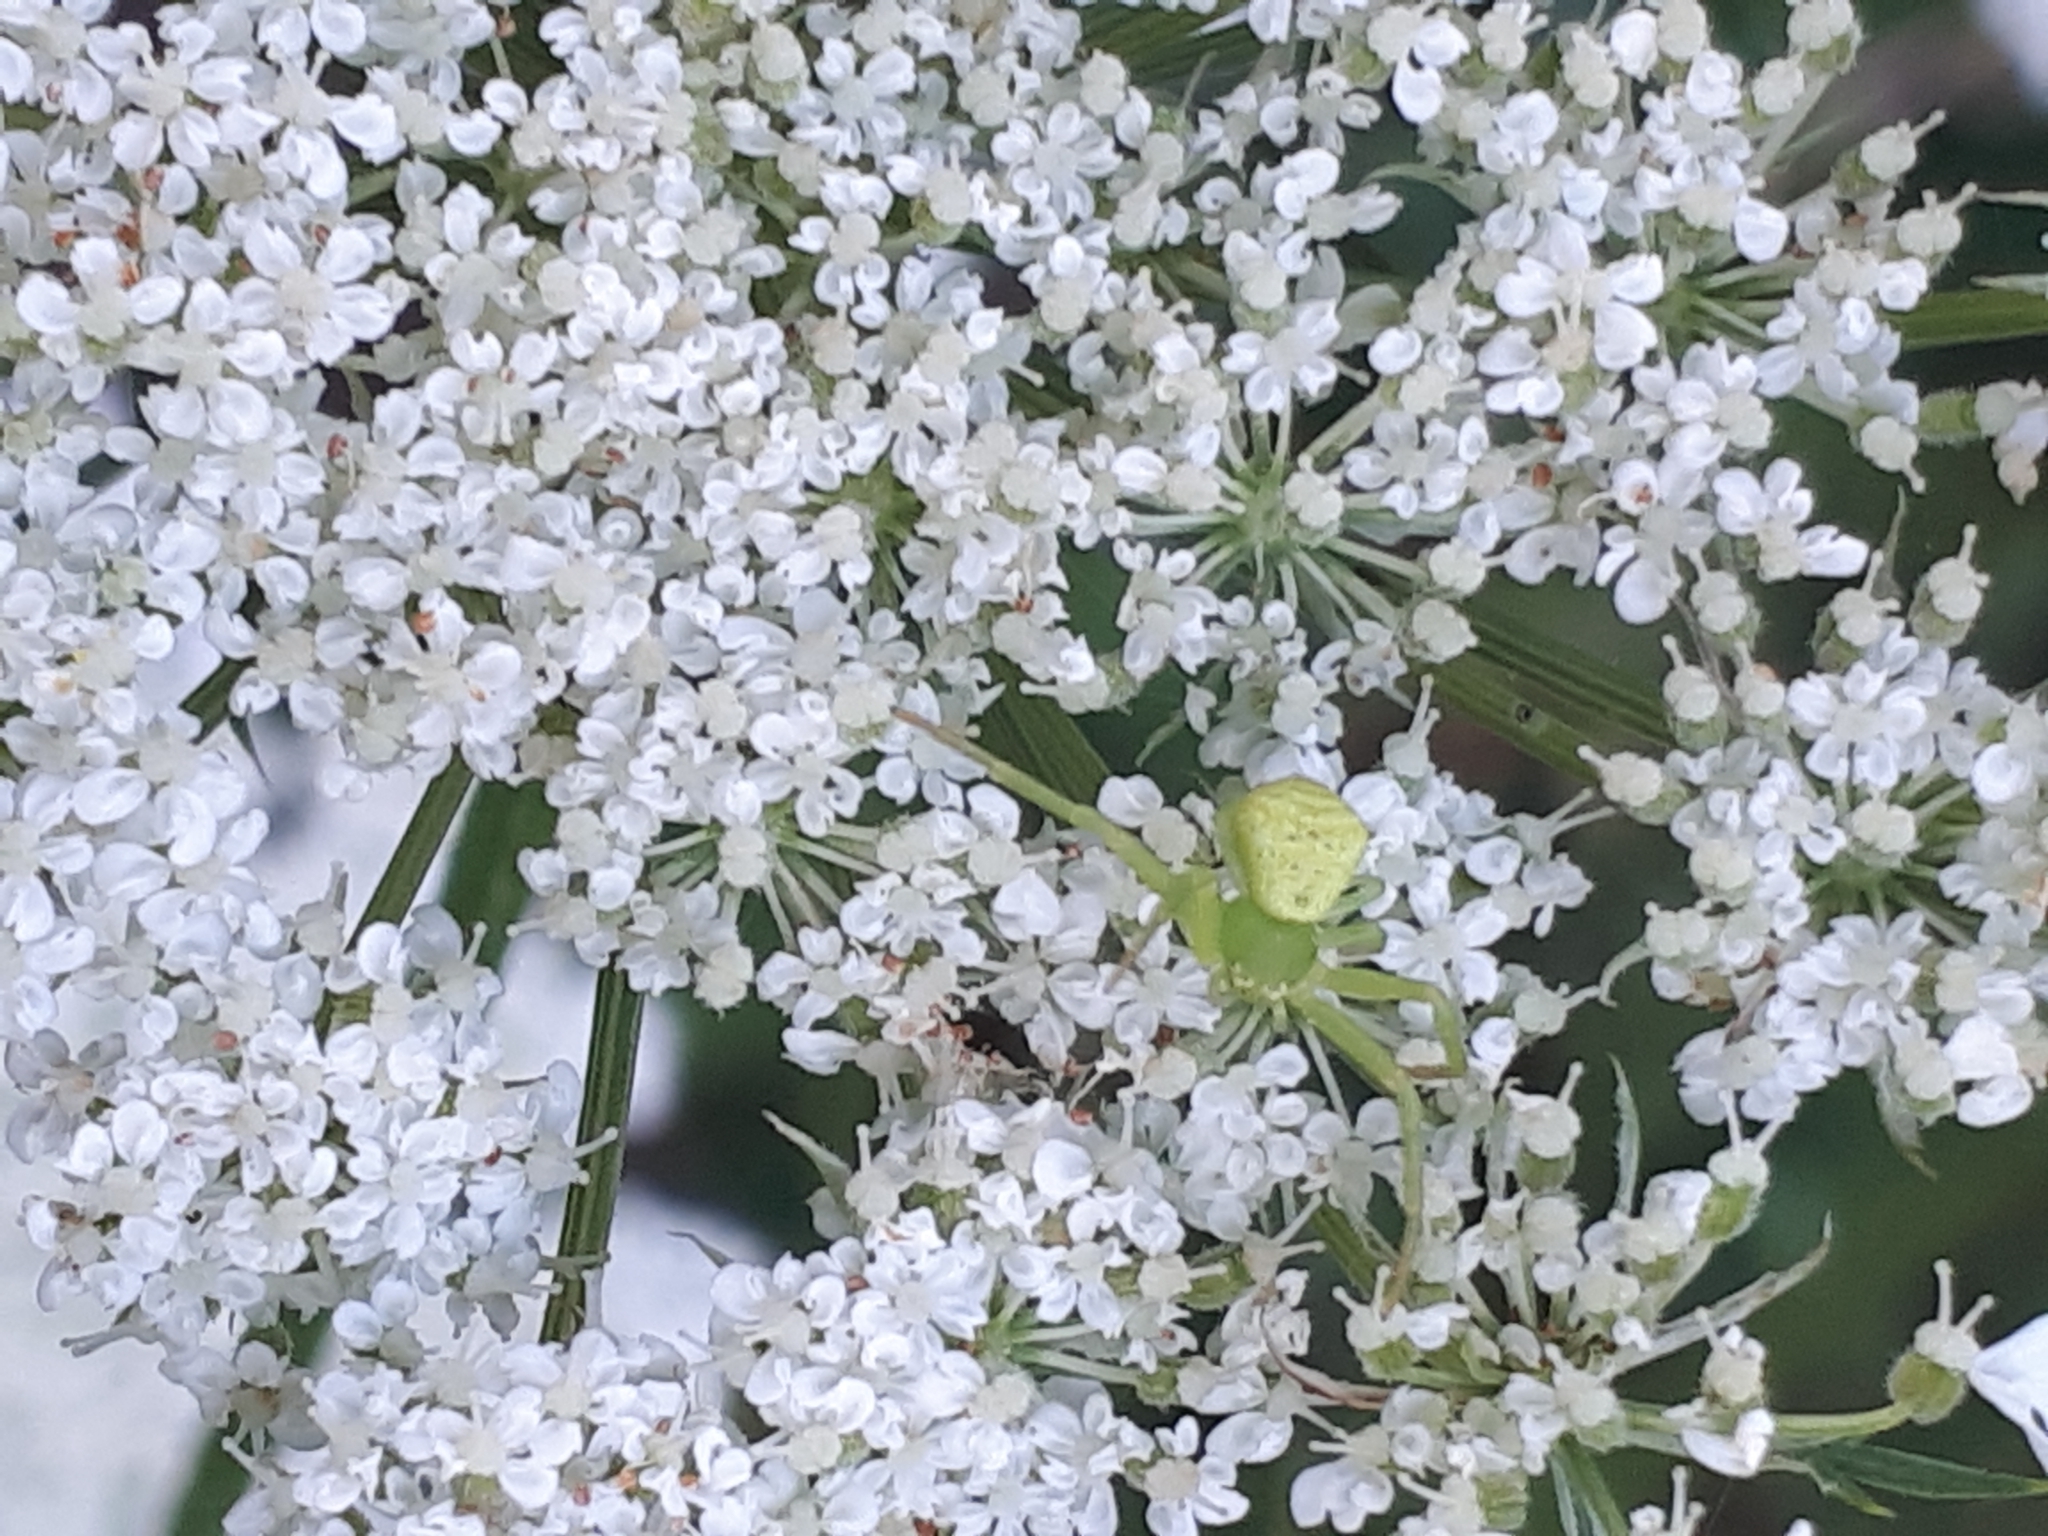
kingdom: Animalia
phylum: Arthropoda
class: Arachnida
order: Araneae
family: Thomisidae
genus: Ebrechtella
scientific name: Ebrechtella tricuspidata
